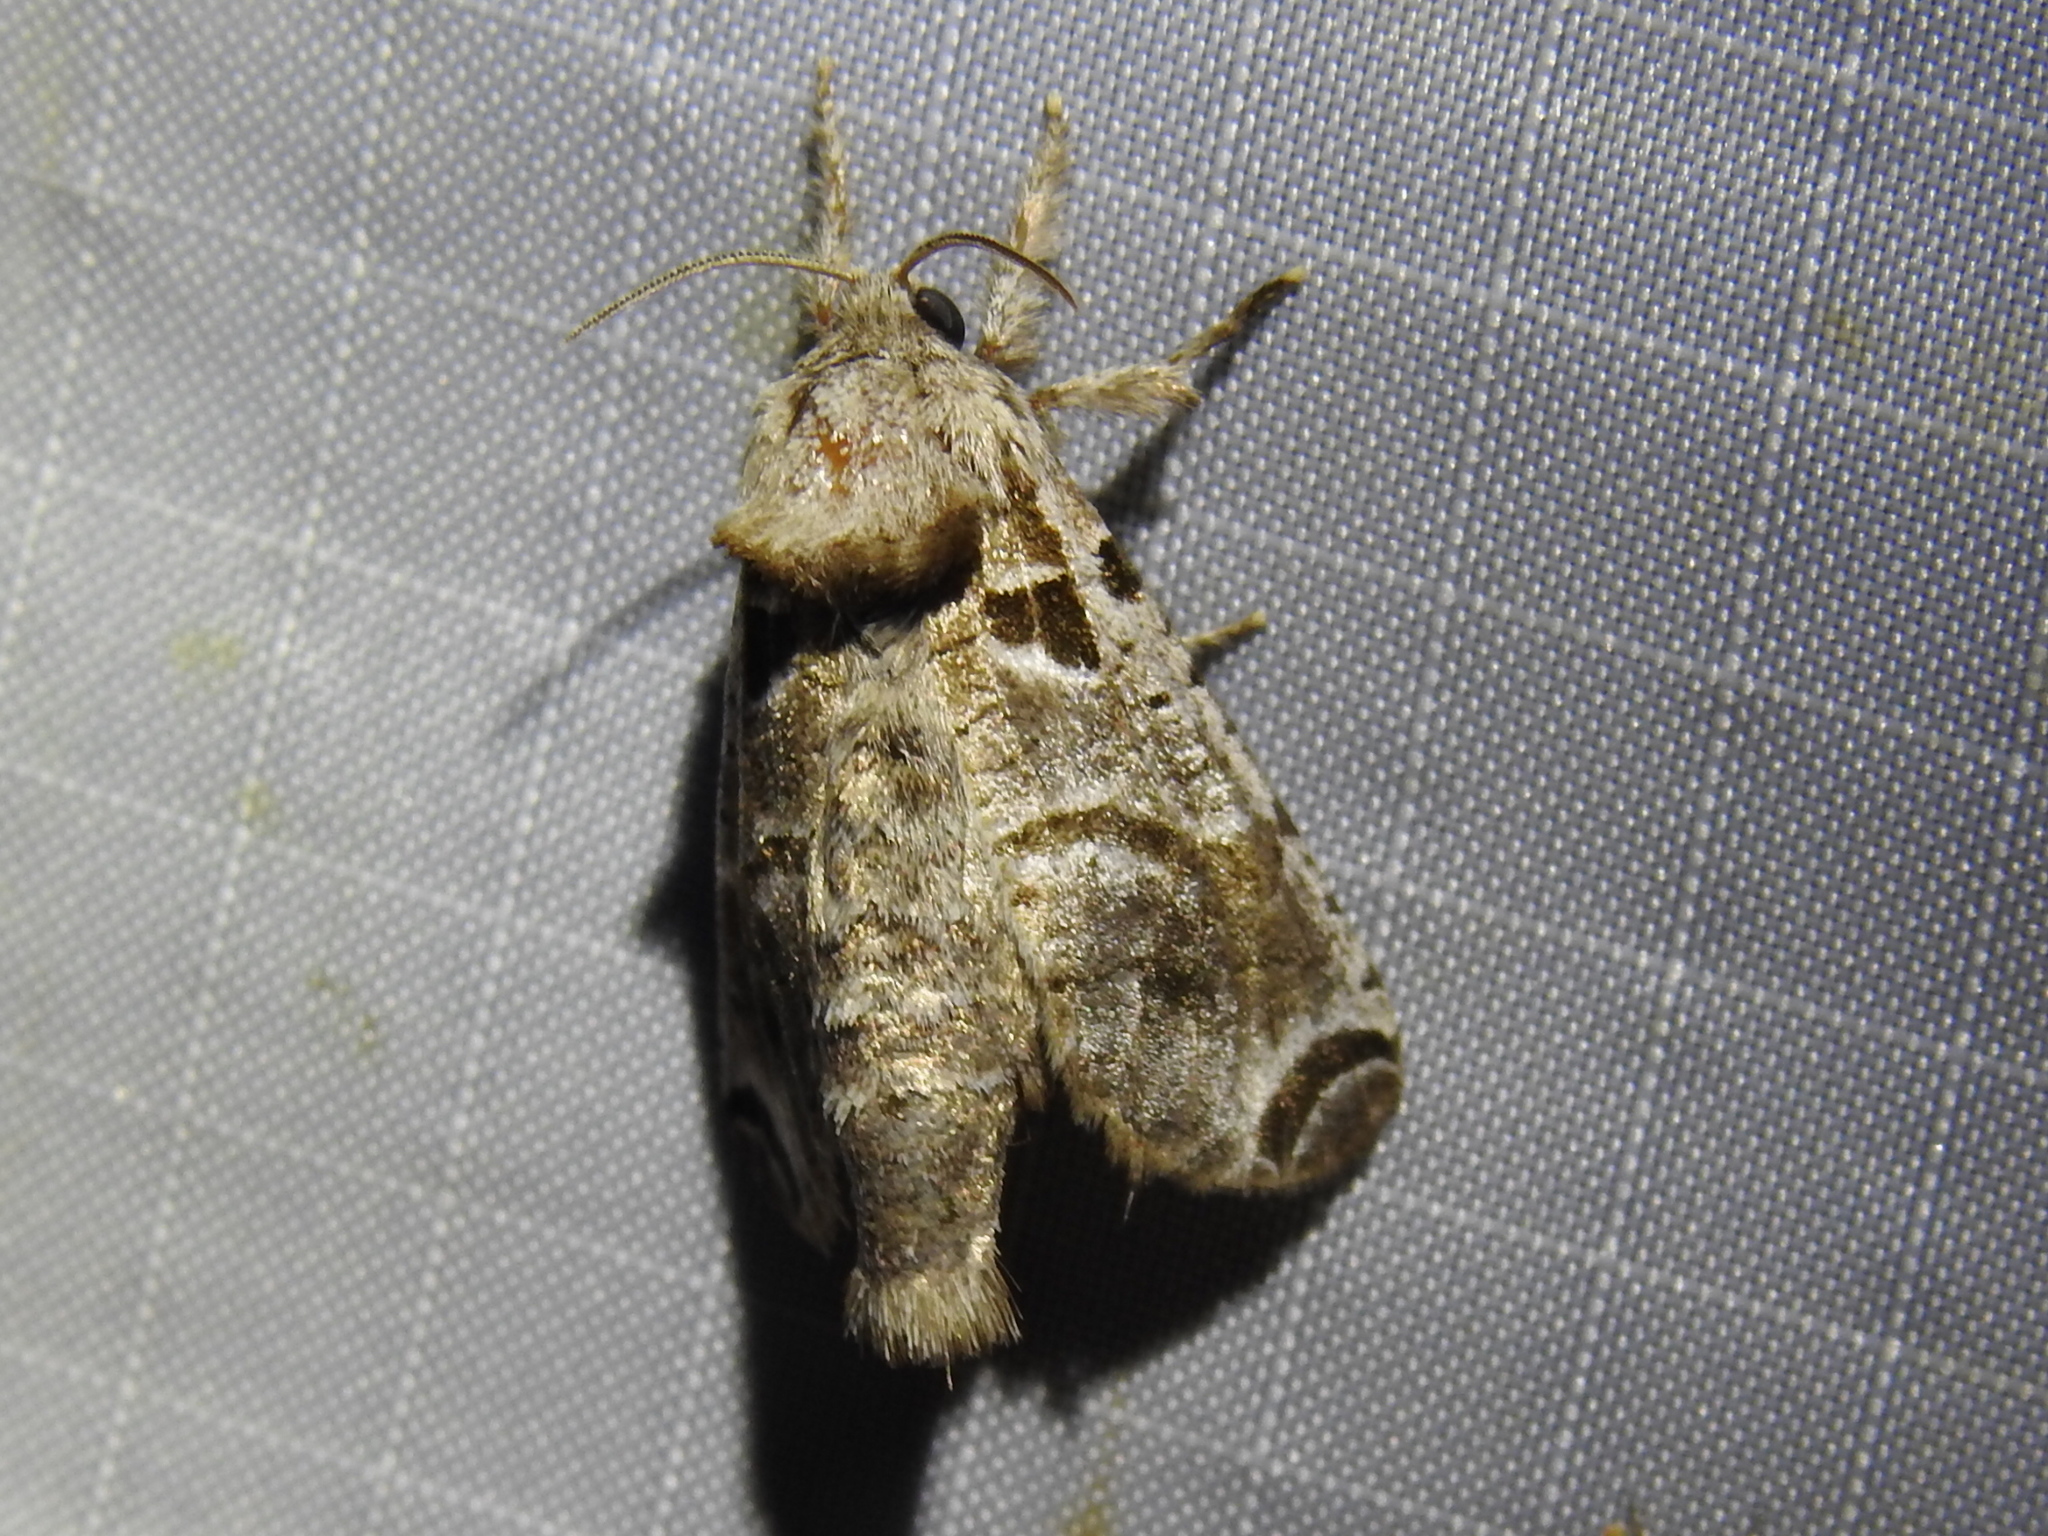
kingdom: Animalia
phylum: Arthropoda
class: Insecta
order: Lepidoptera
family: Cossidae
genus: Inguromorpha
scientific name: Inguromorpha
